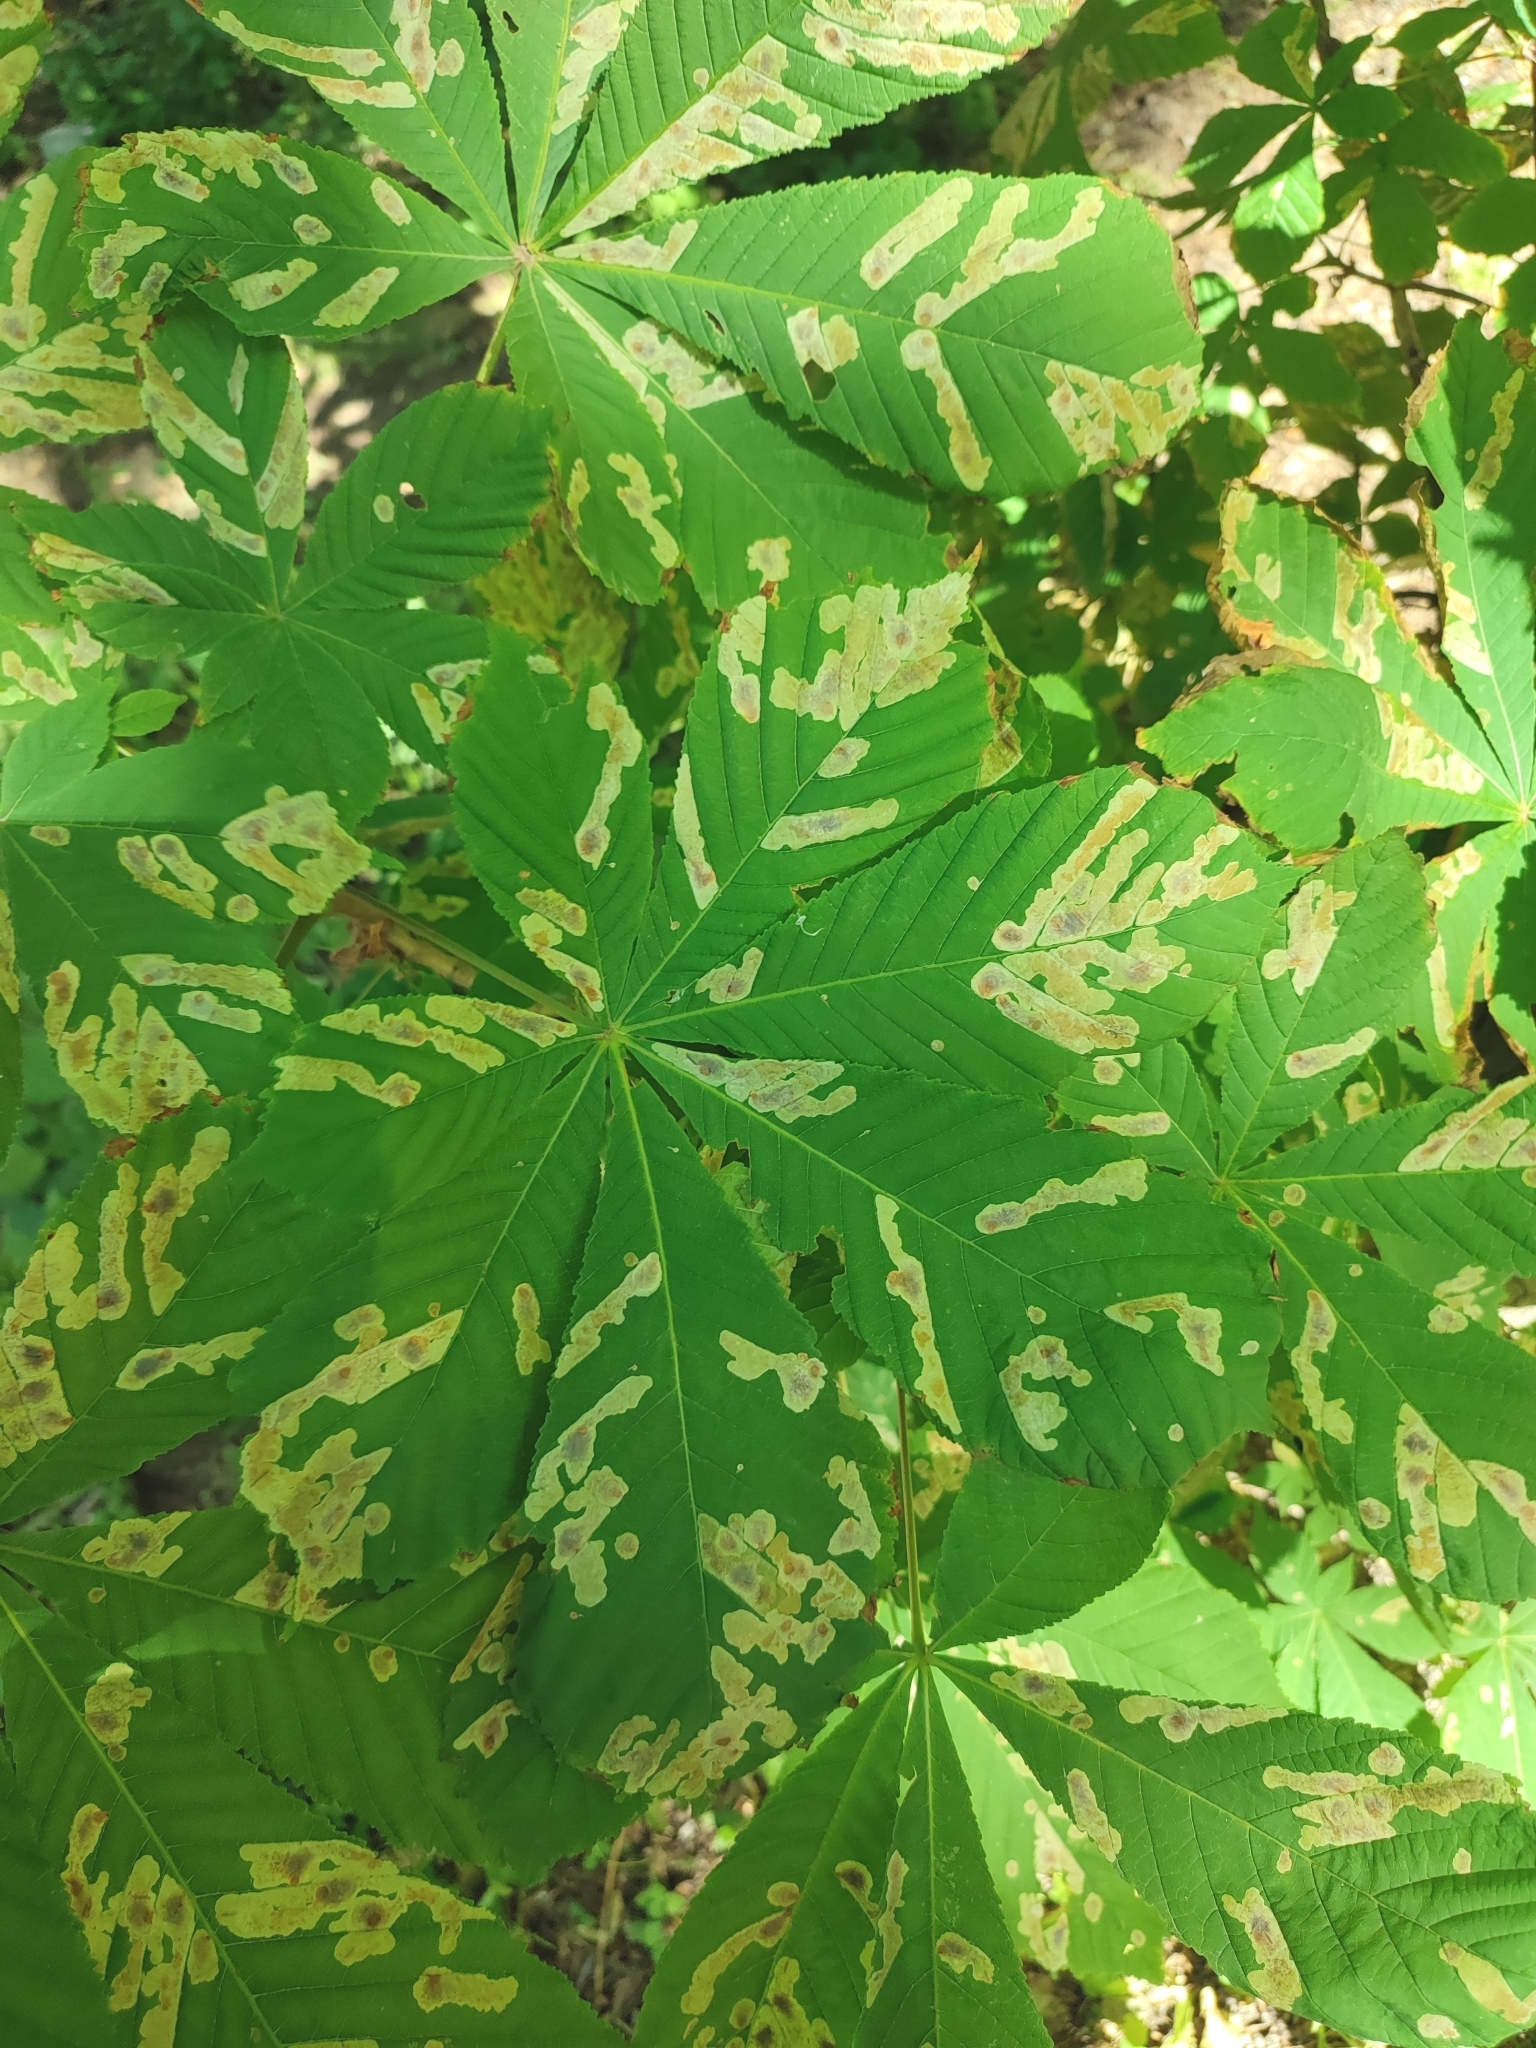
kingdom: Animalia
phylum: Arthropoda
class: Insecta
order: Lepidoptera
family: Gracillariidae
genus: Cameraria
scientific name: Cameraria ohridella
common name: Horse-chestnut leaf-miner
